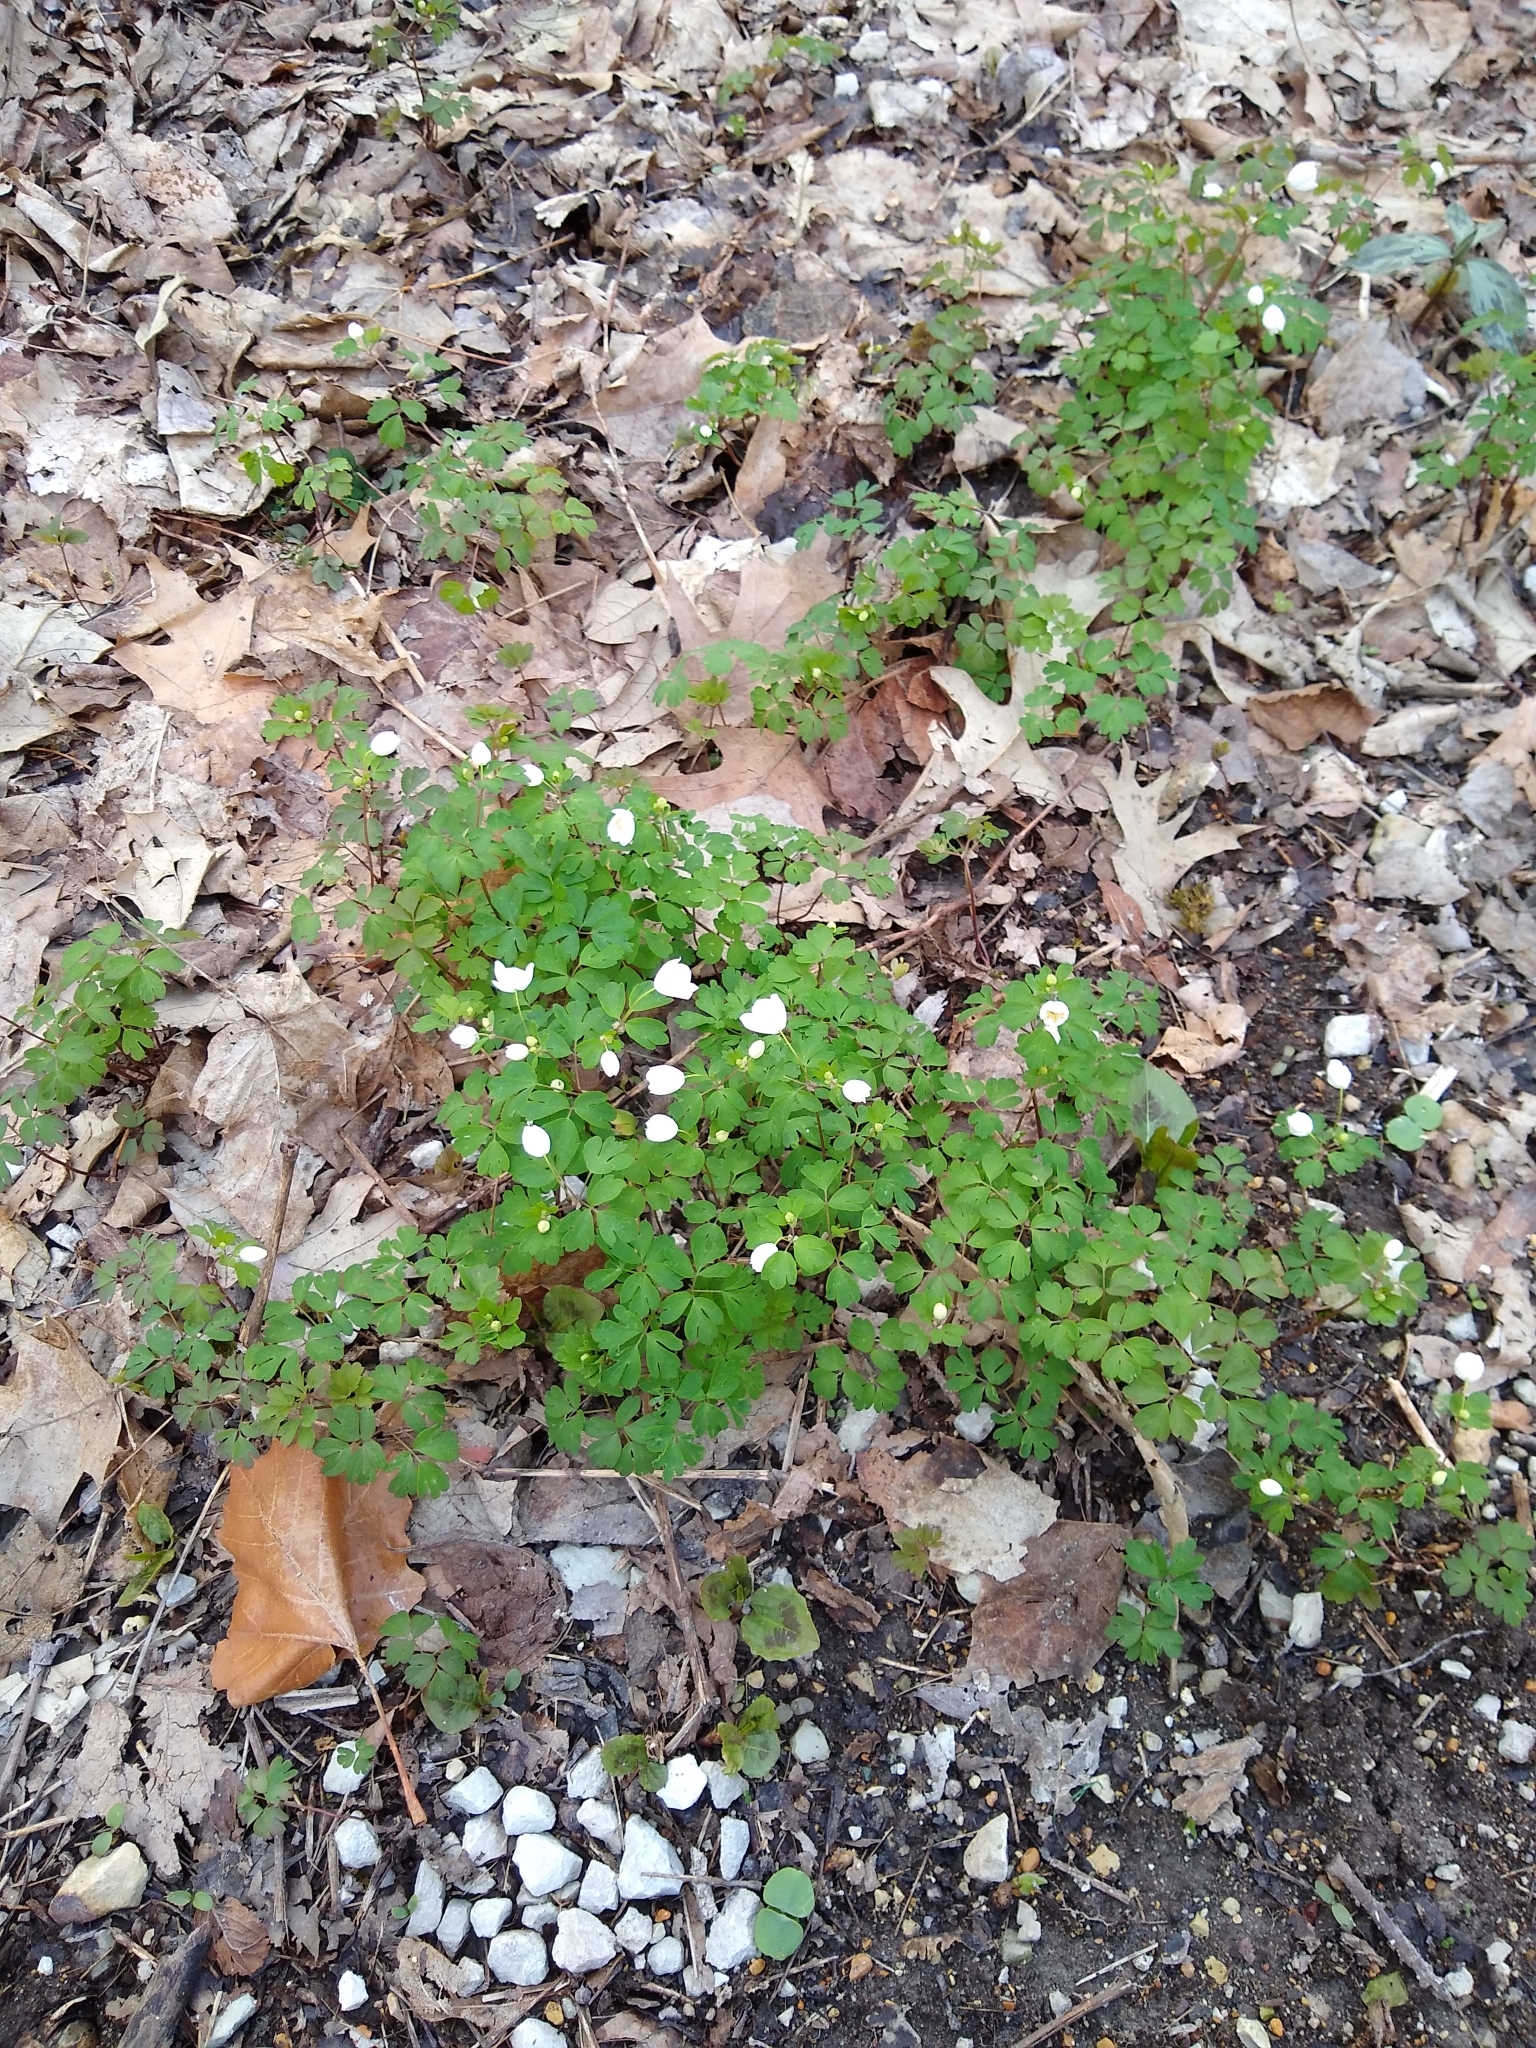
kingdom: Plantae
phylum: Tracheophyta
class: Magnoliopsida
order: Ranunculales
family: Ranunculaceae
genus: Enemion
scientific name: Enemion biternatum
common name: Eastern false rue-anemone
